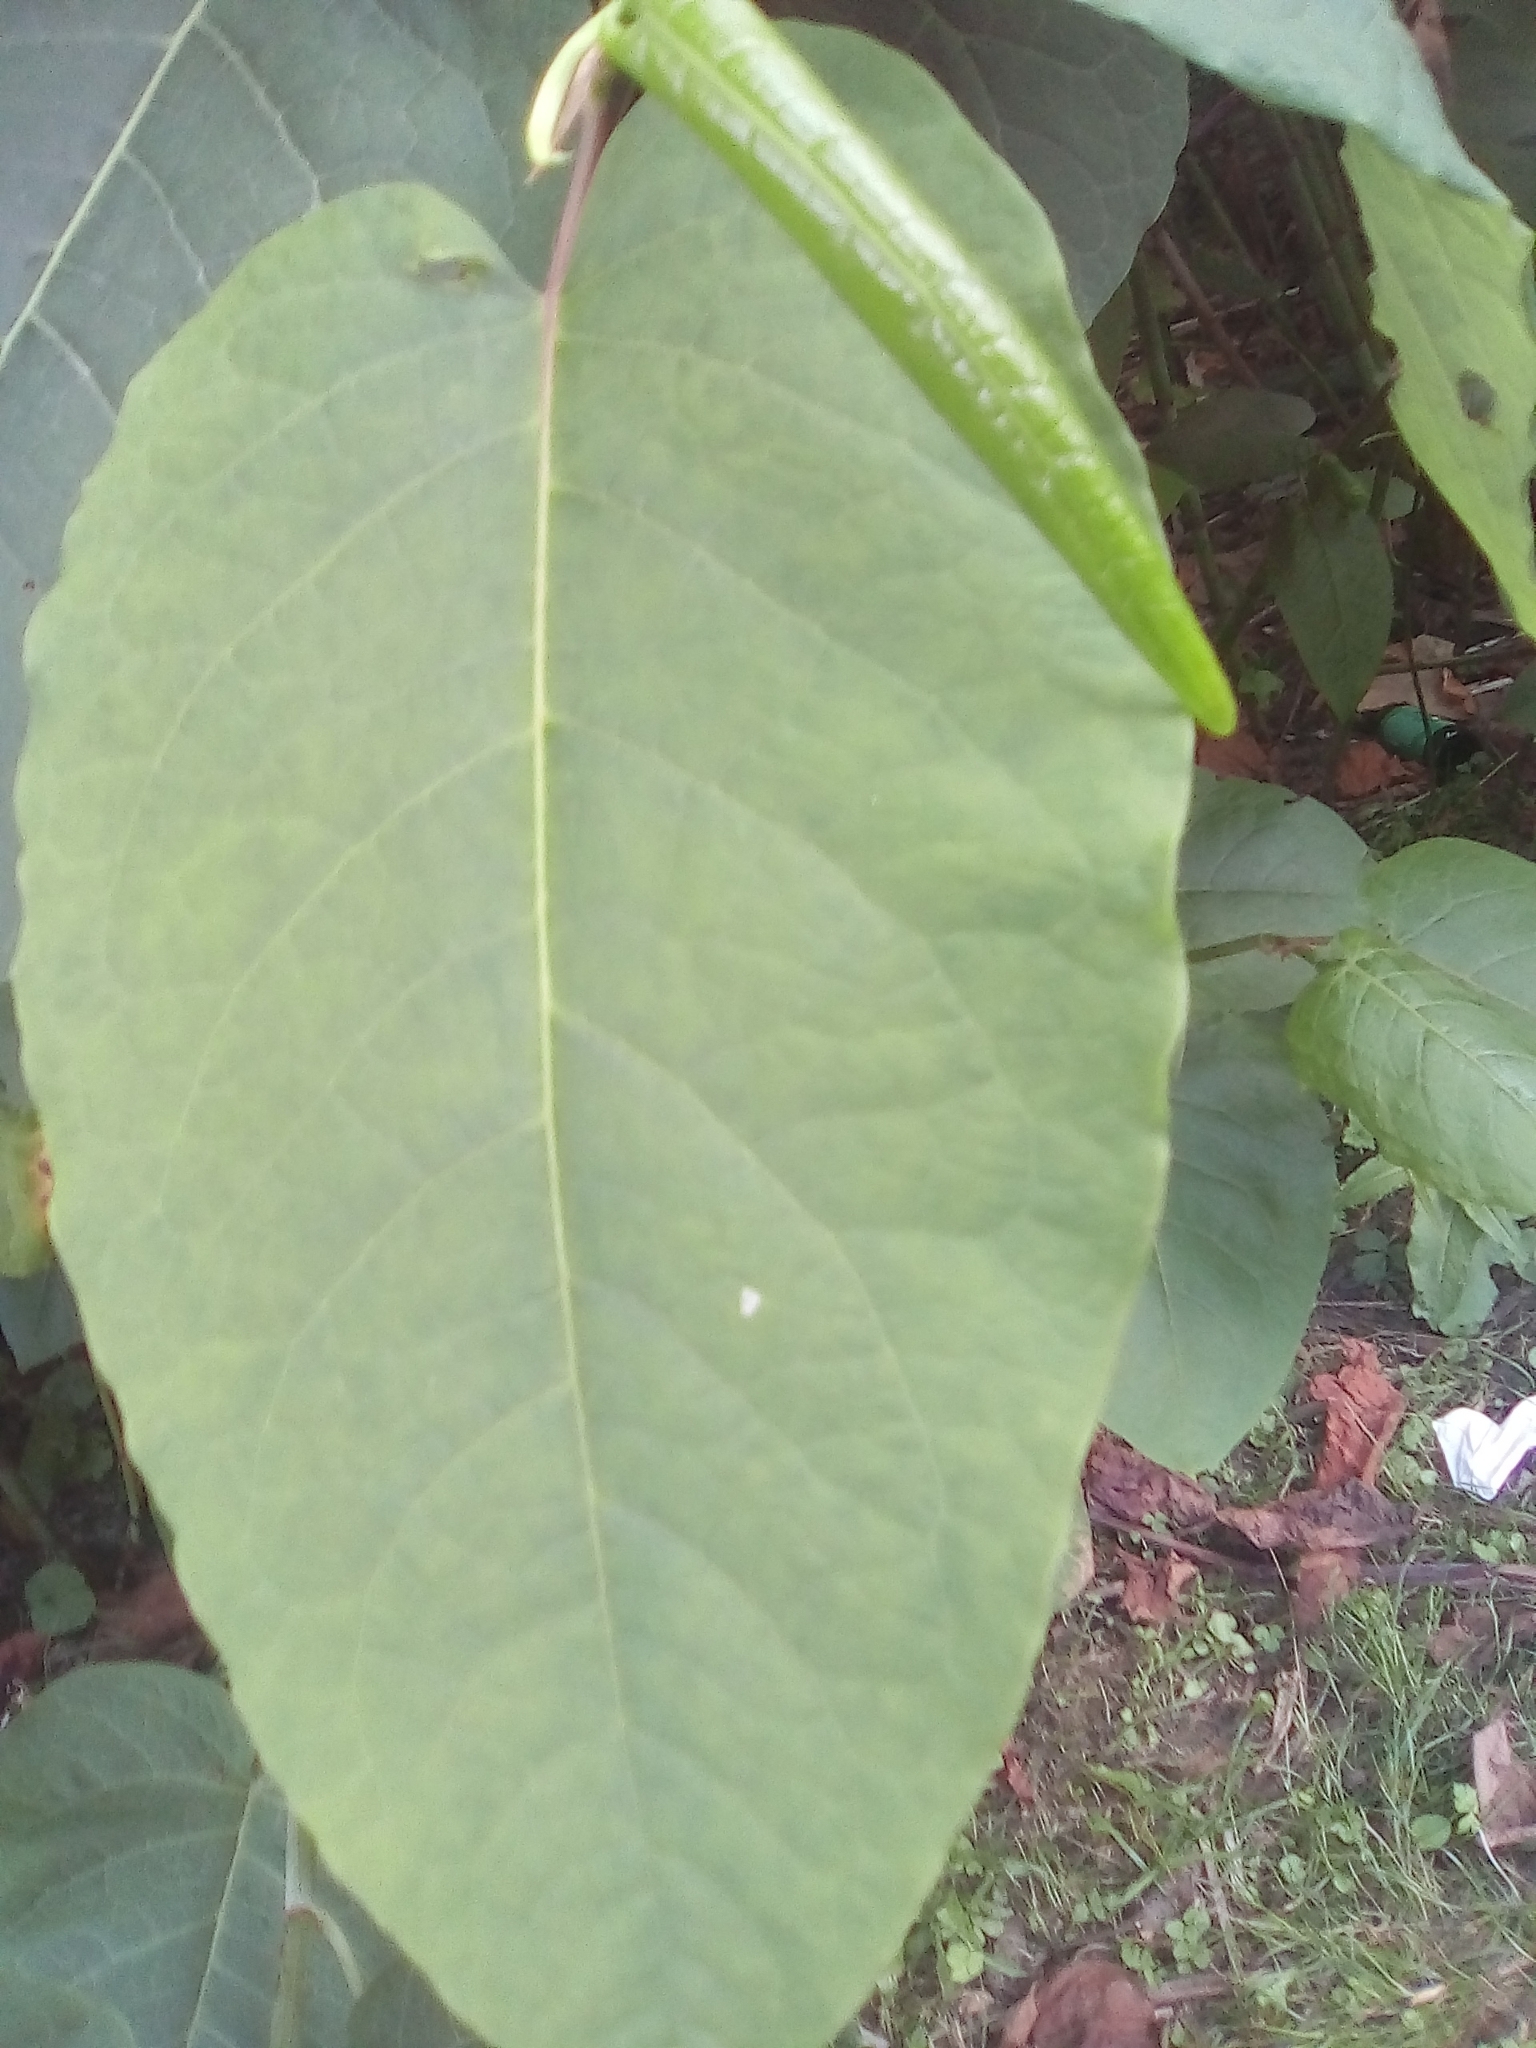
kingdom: Plantae
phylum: Tracheophyta
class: Magnoliopsida
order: Caryophyllales
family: Polygonaceae
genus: Reynoutria
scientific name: Reynoutria sachalinensis
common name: Giant knotweed
